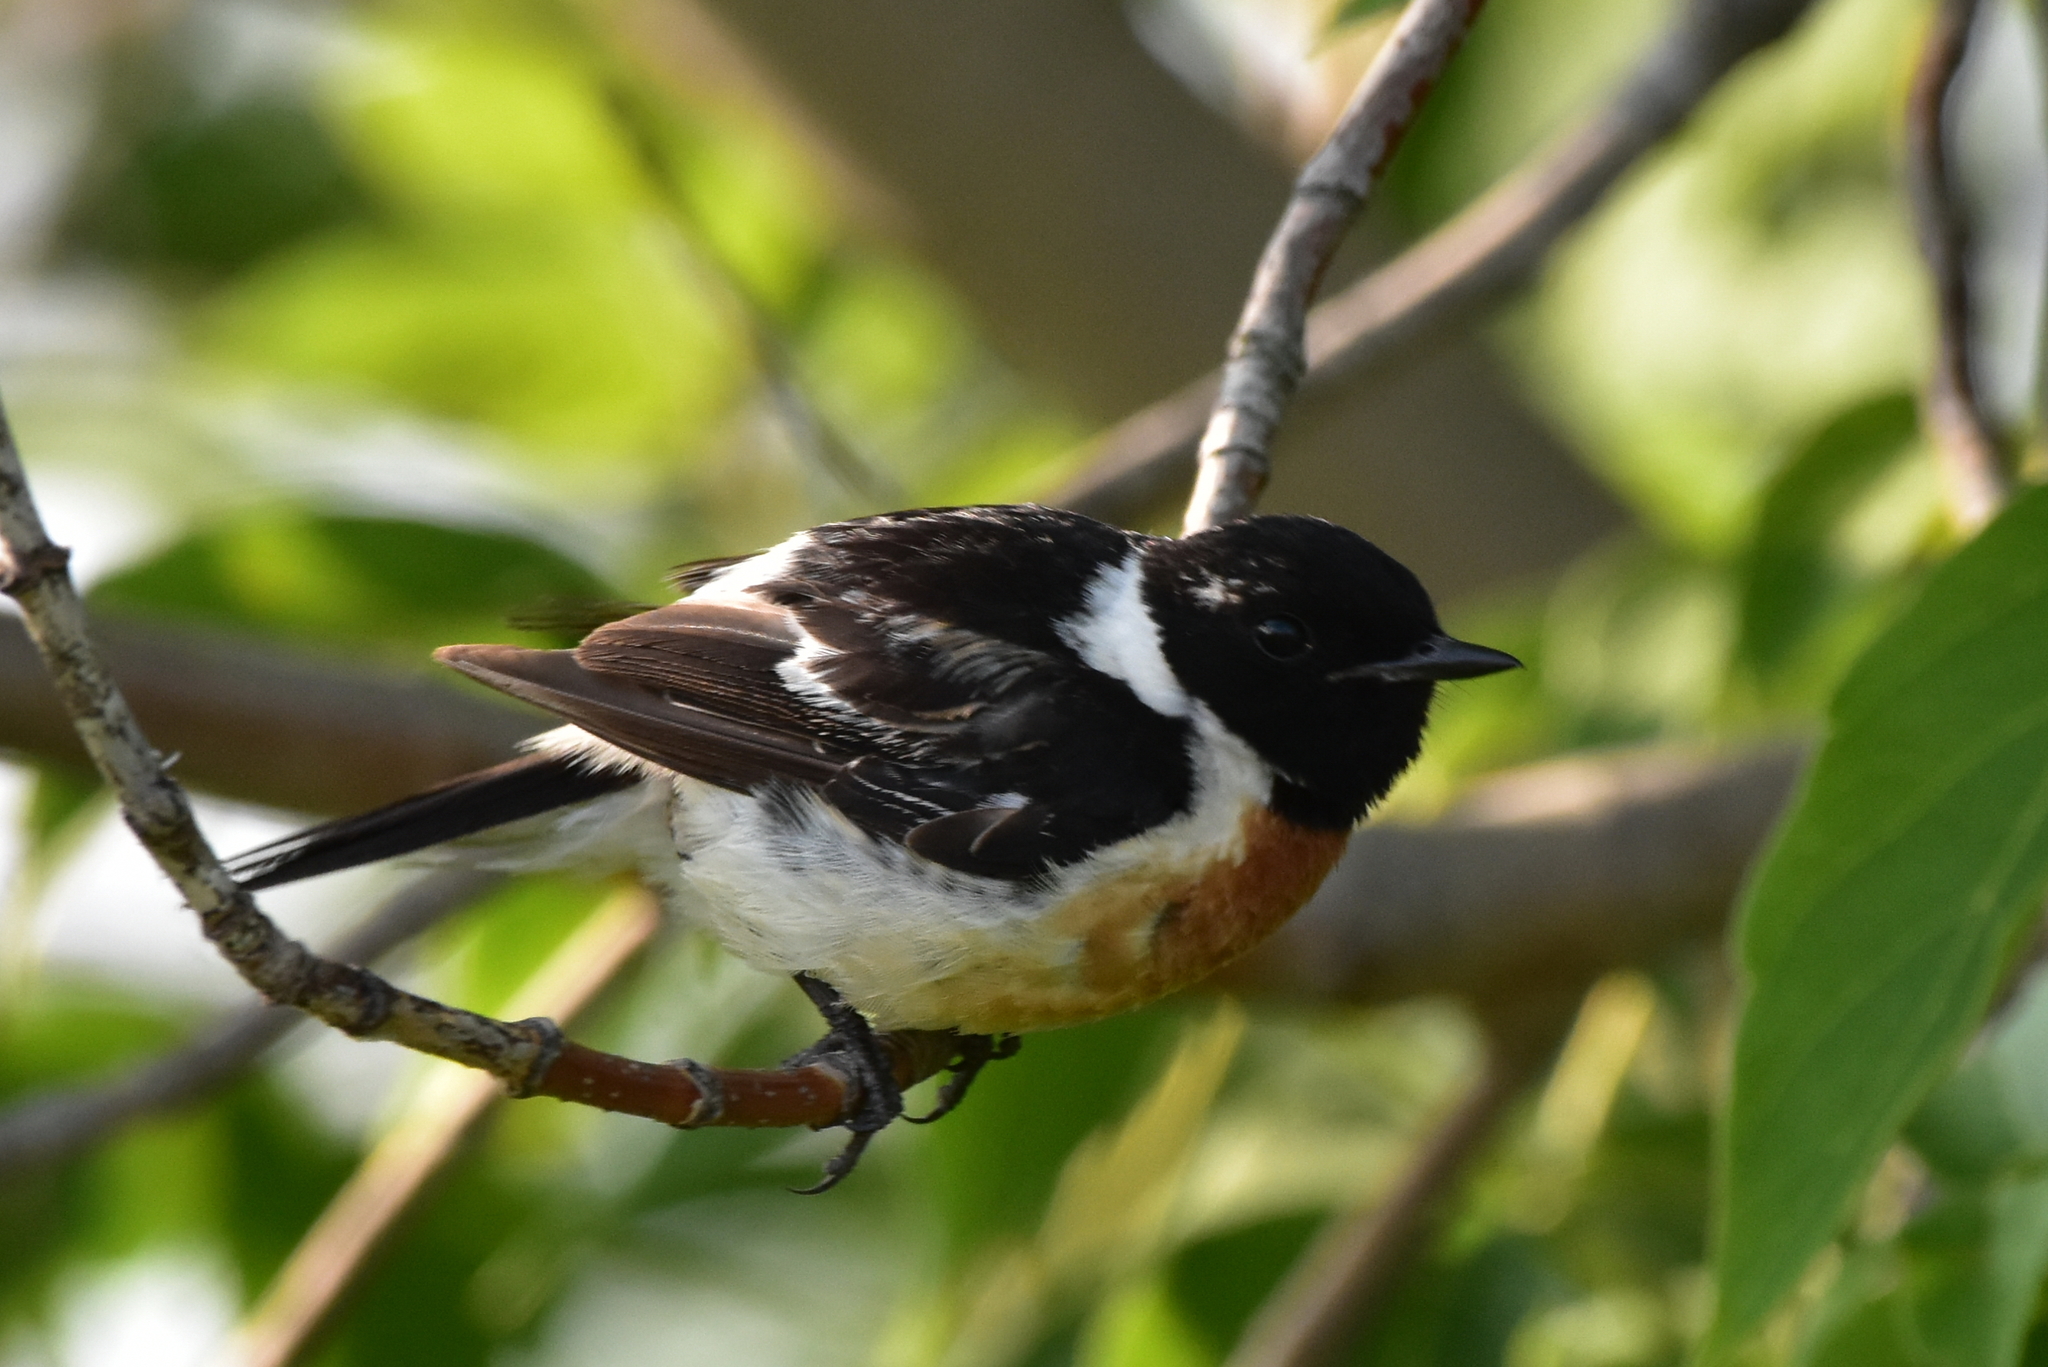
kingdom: Animalia
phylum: Chordata
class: Aves
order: Passeriformes
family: Muscicapidae
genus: Saxicola
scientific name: Saxicola maurus
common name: Siberian stonechat
